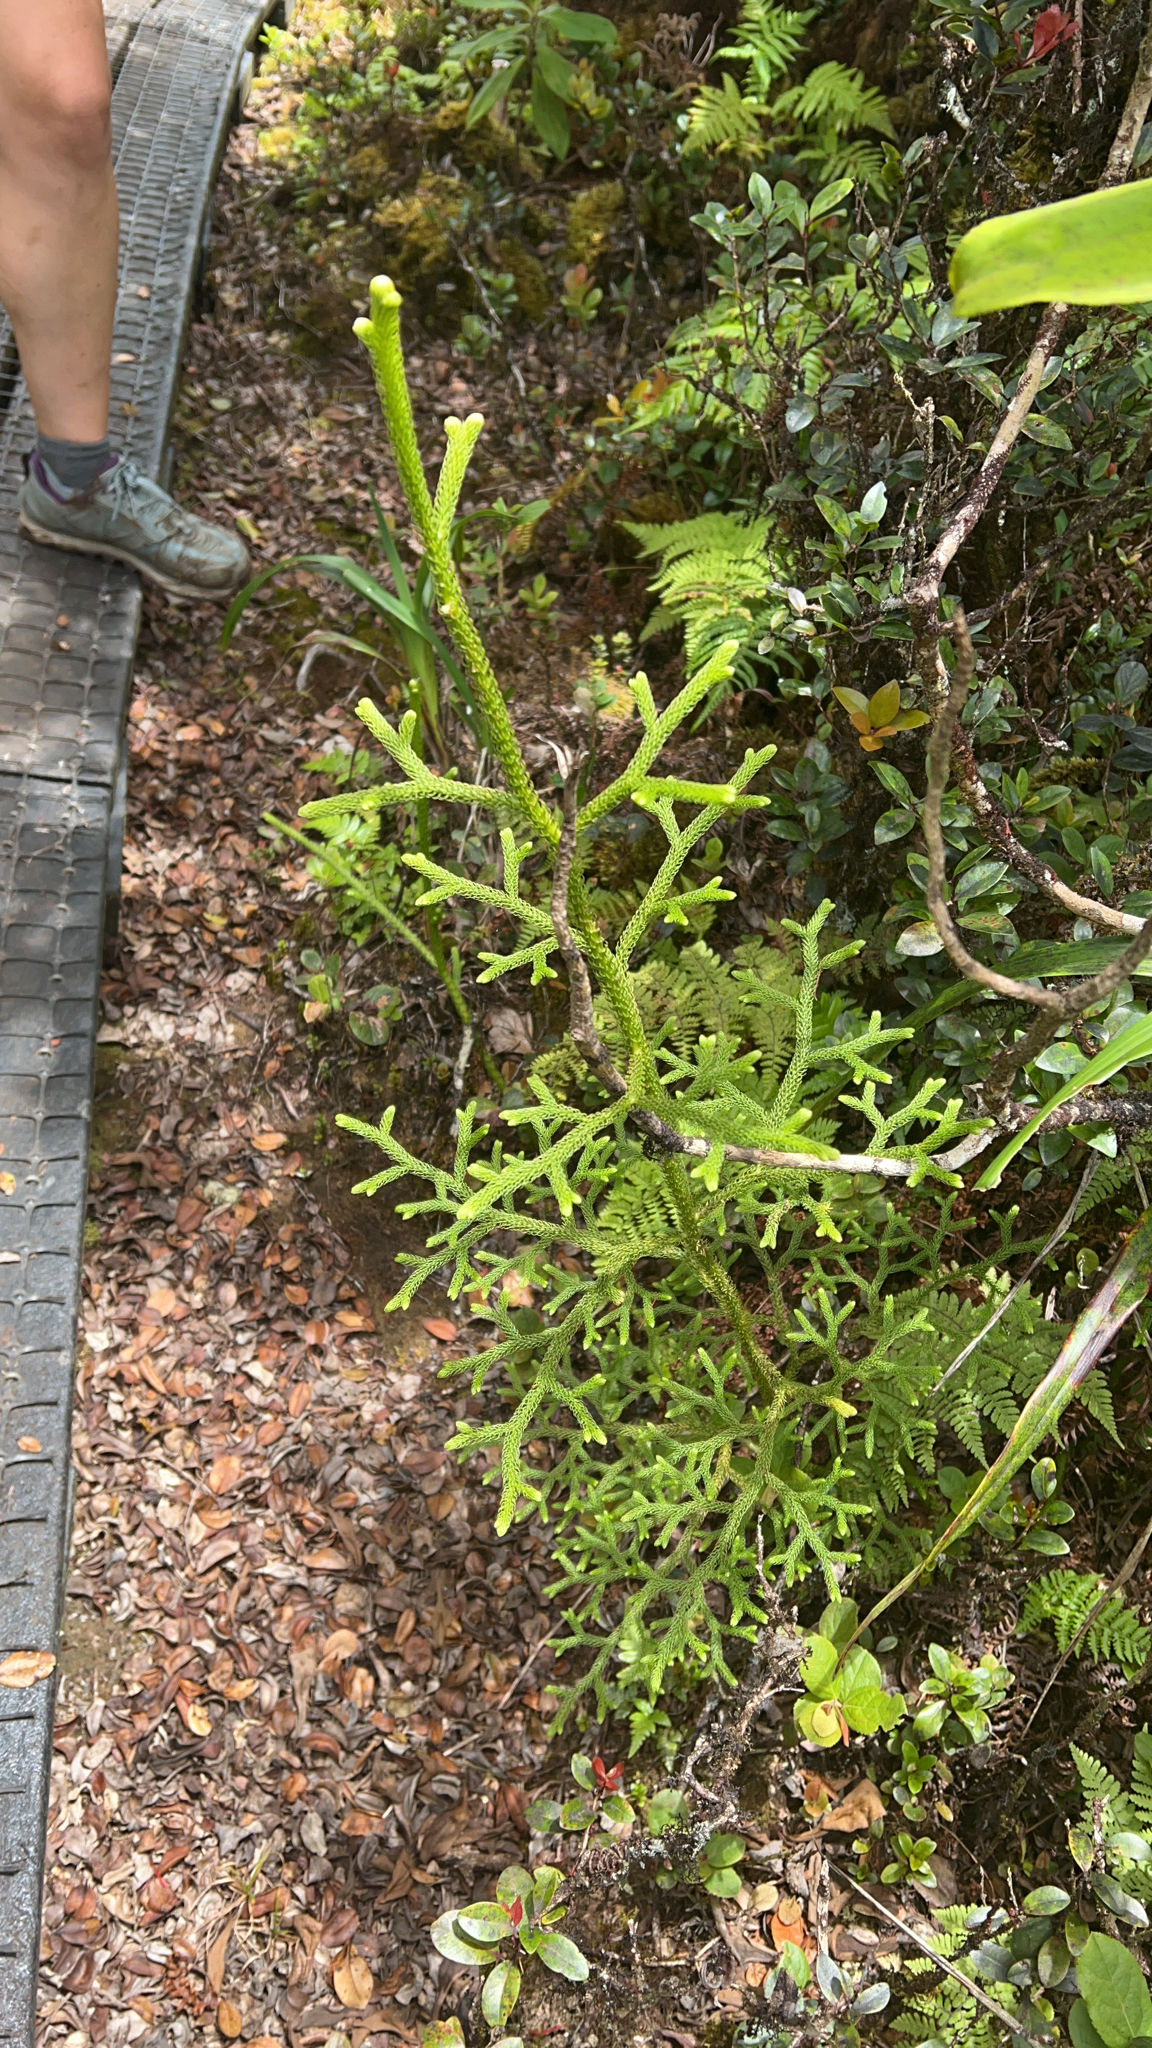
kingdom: Plantae
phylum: Tracheophyta
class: Lycopodiopsida
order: Lycopodiales
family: Lycopodiaceae
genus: Palhinhaea
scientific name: Palhinhaea cernua
